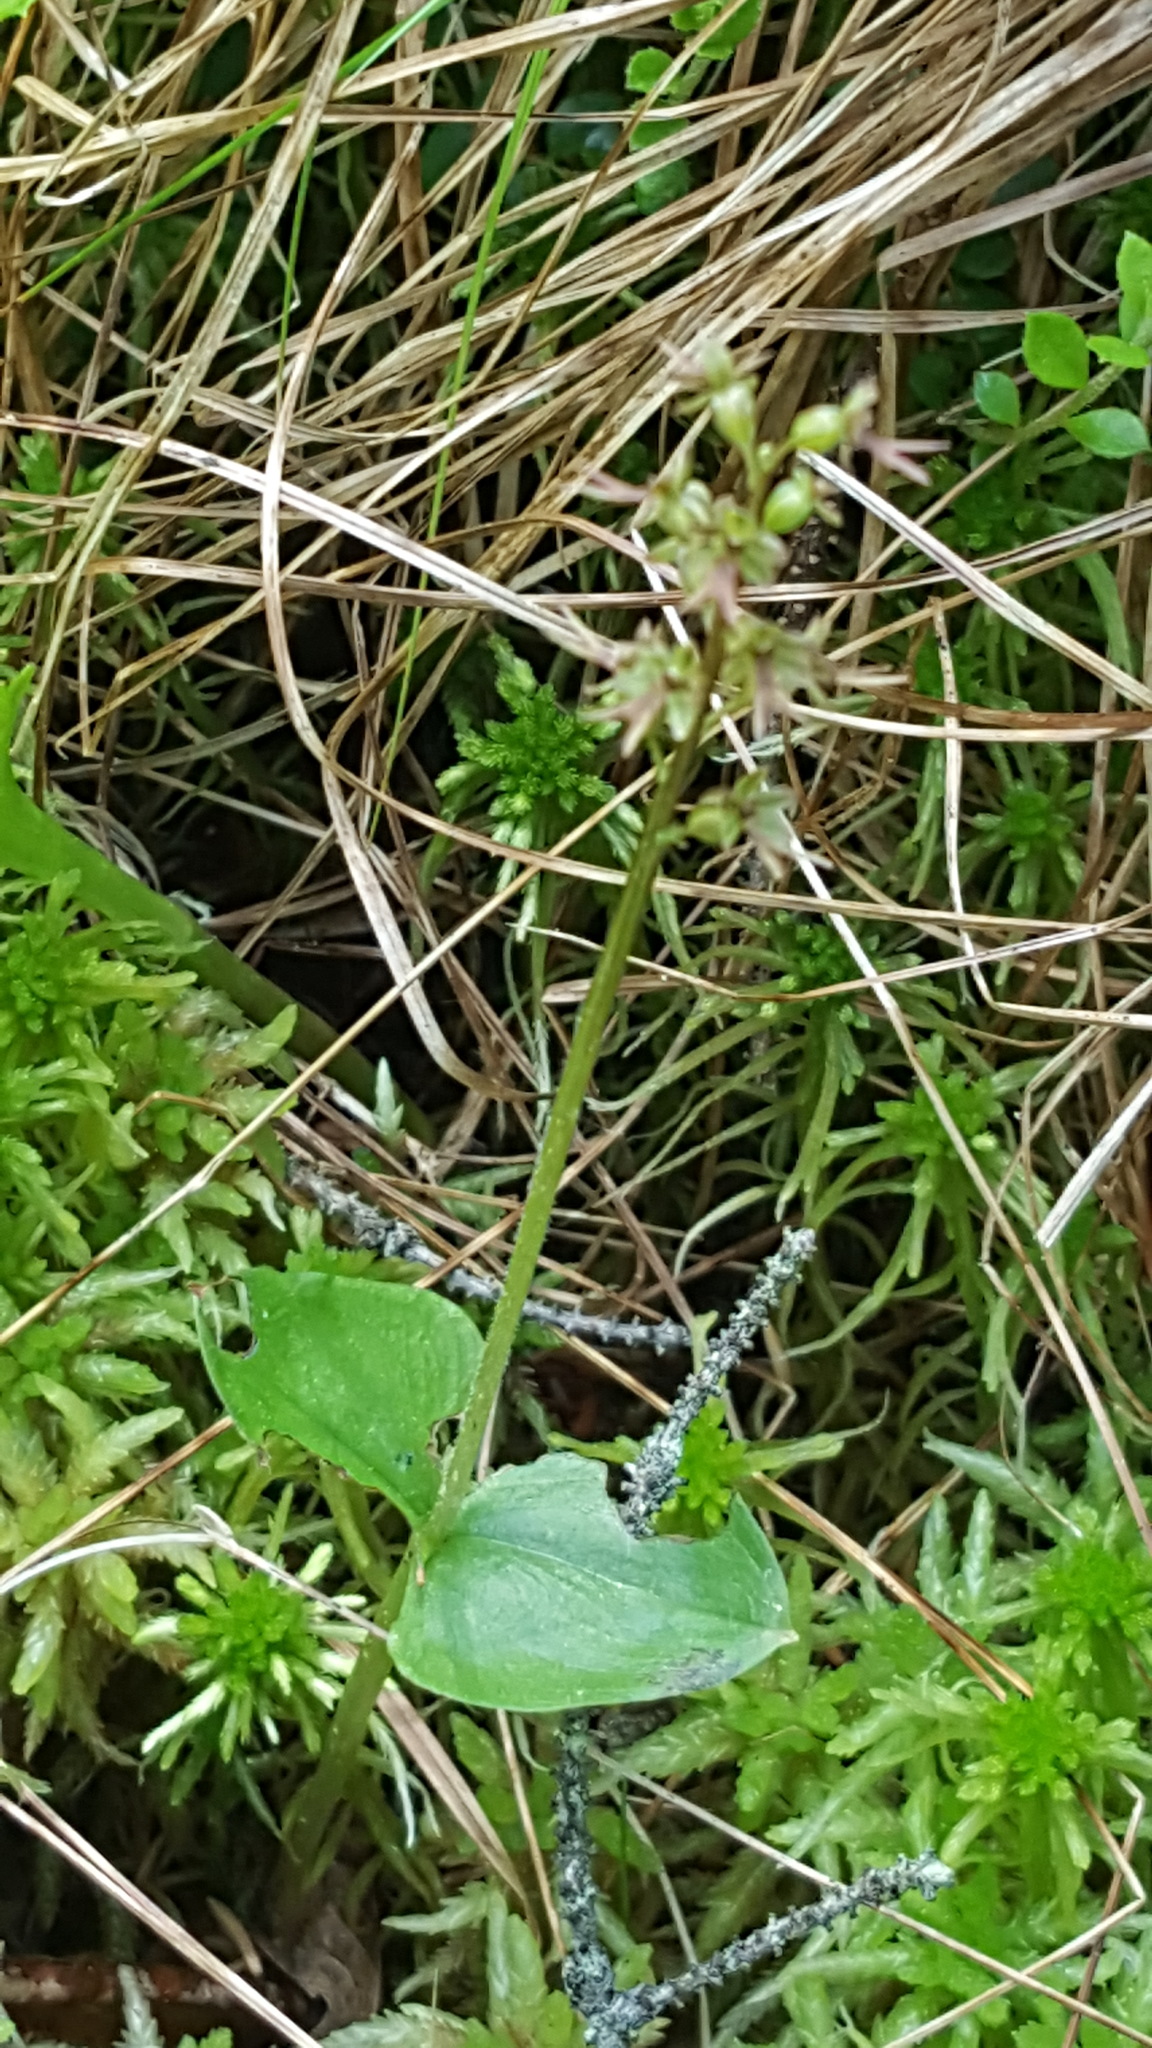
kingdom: Plantae
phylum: Tracheophyta
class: Liliopsida
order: Asparagales
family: Orchidaceae
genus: Neottia
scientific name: Neottia cordata
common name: Lesser twayblade
